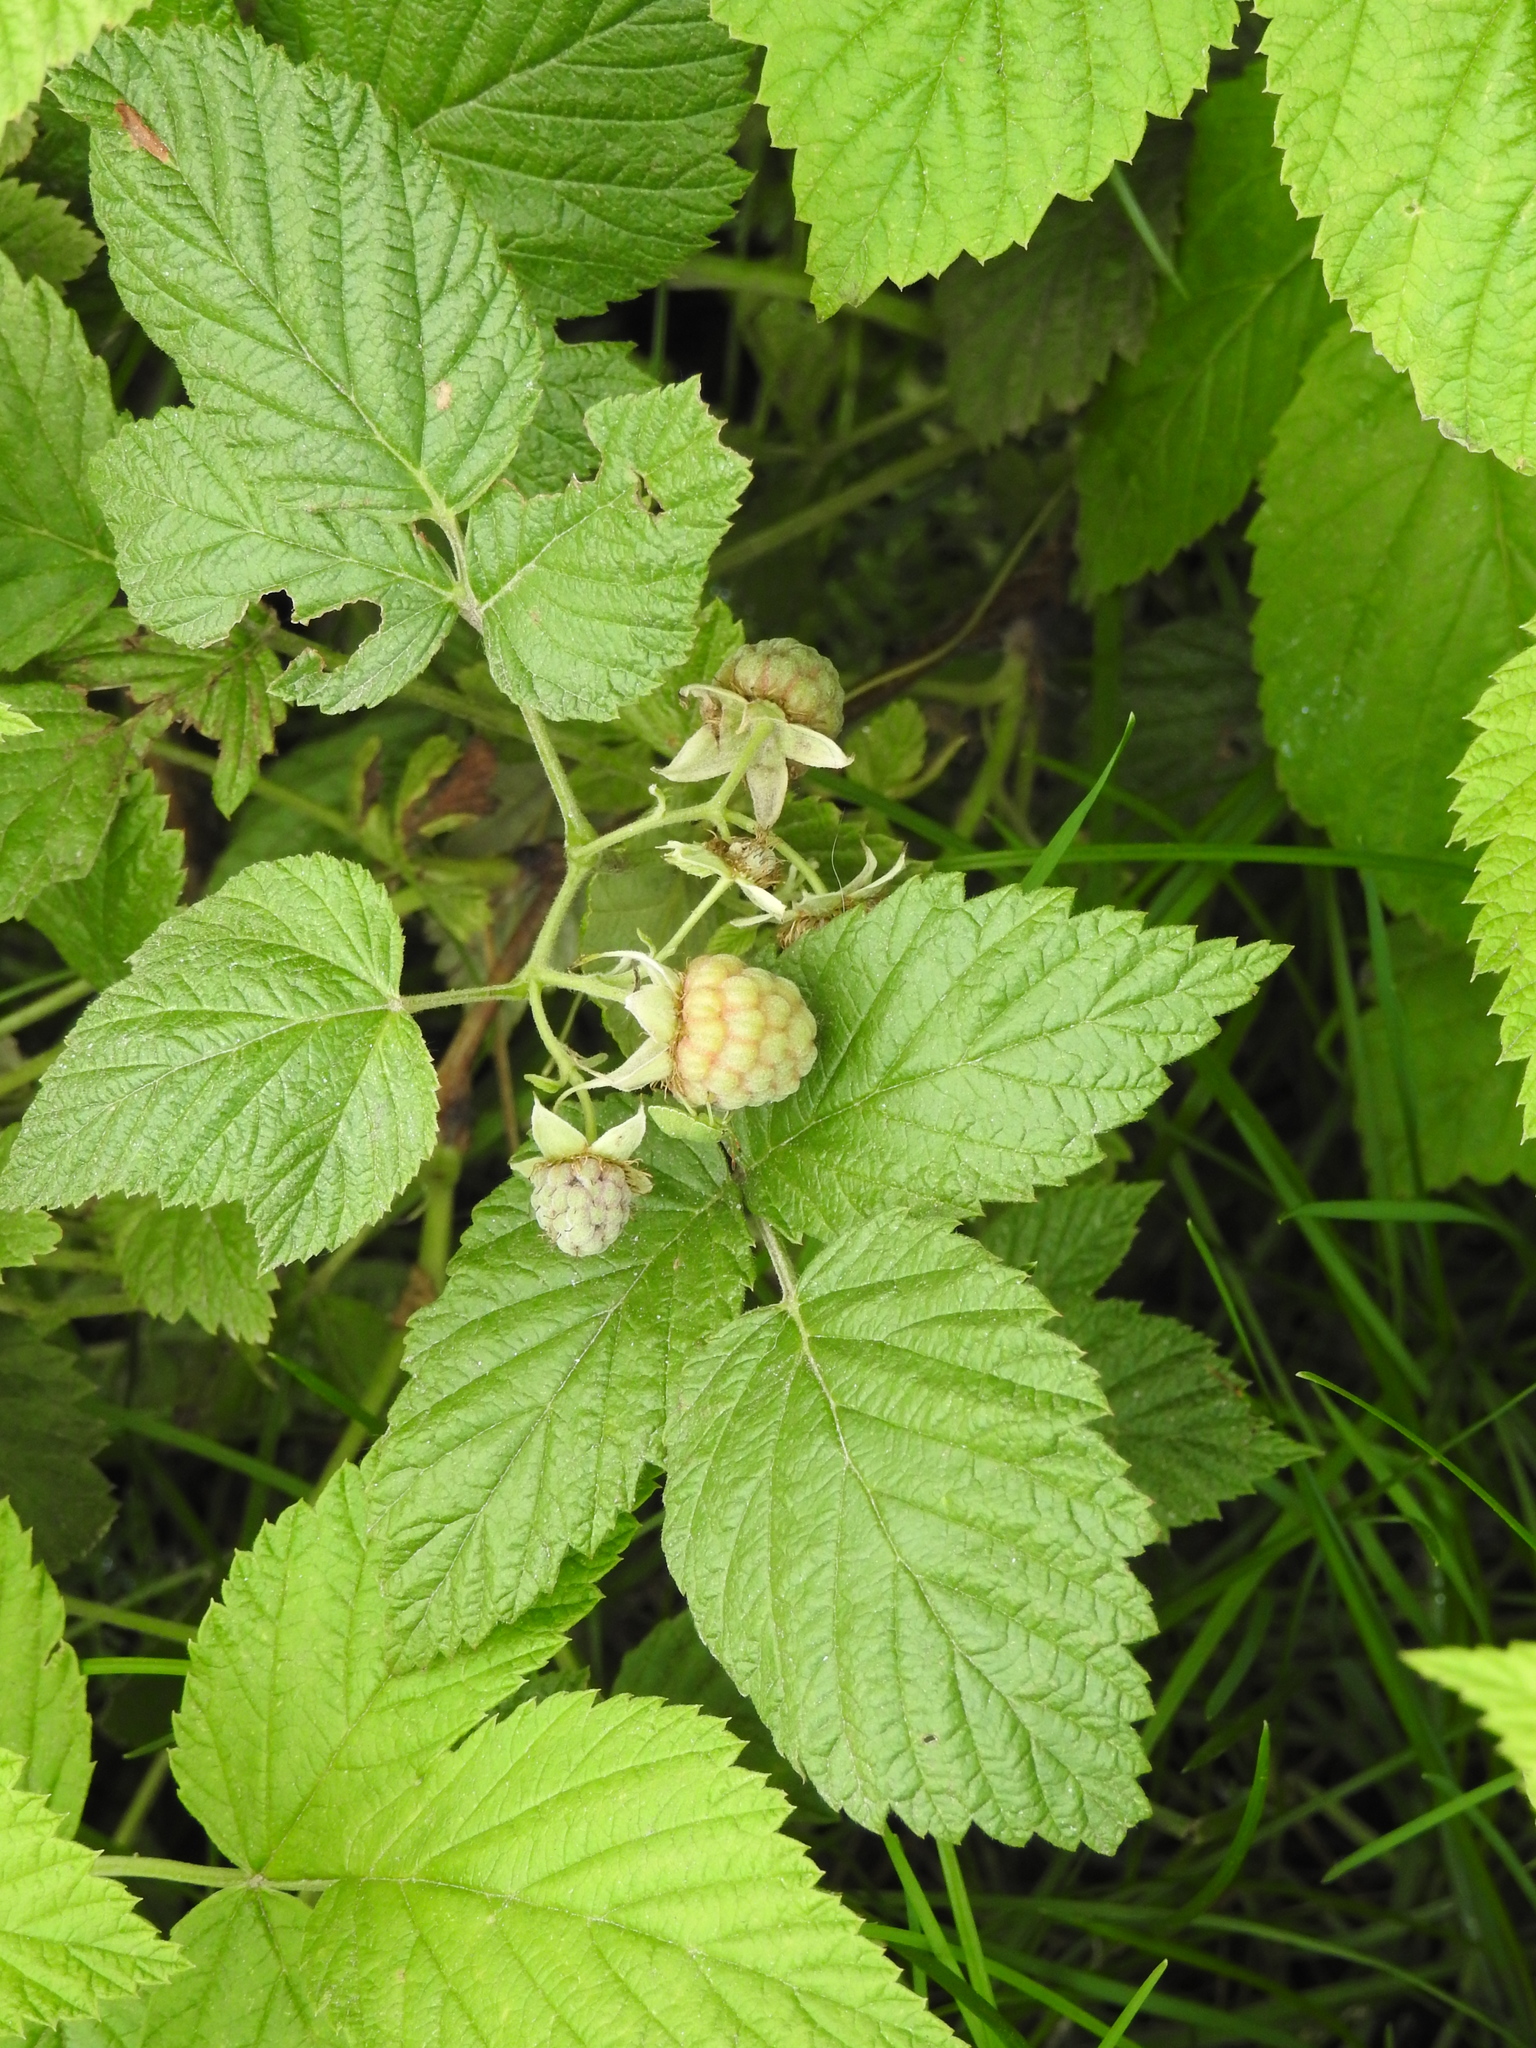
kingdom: Plantae
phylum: Tracheophyta
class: Magnoliopsida
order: Rosales
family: Rosaceae
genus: Rubus
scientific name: Rubus idaeus
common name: Raspberry
